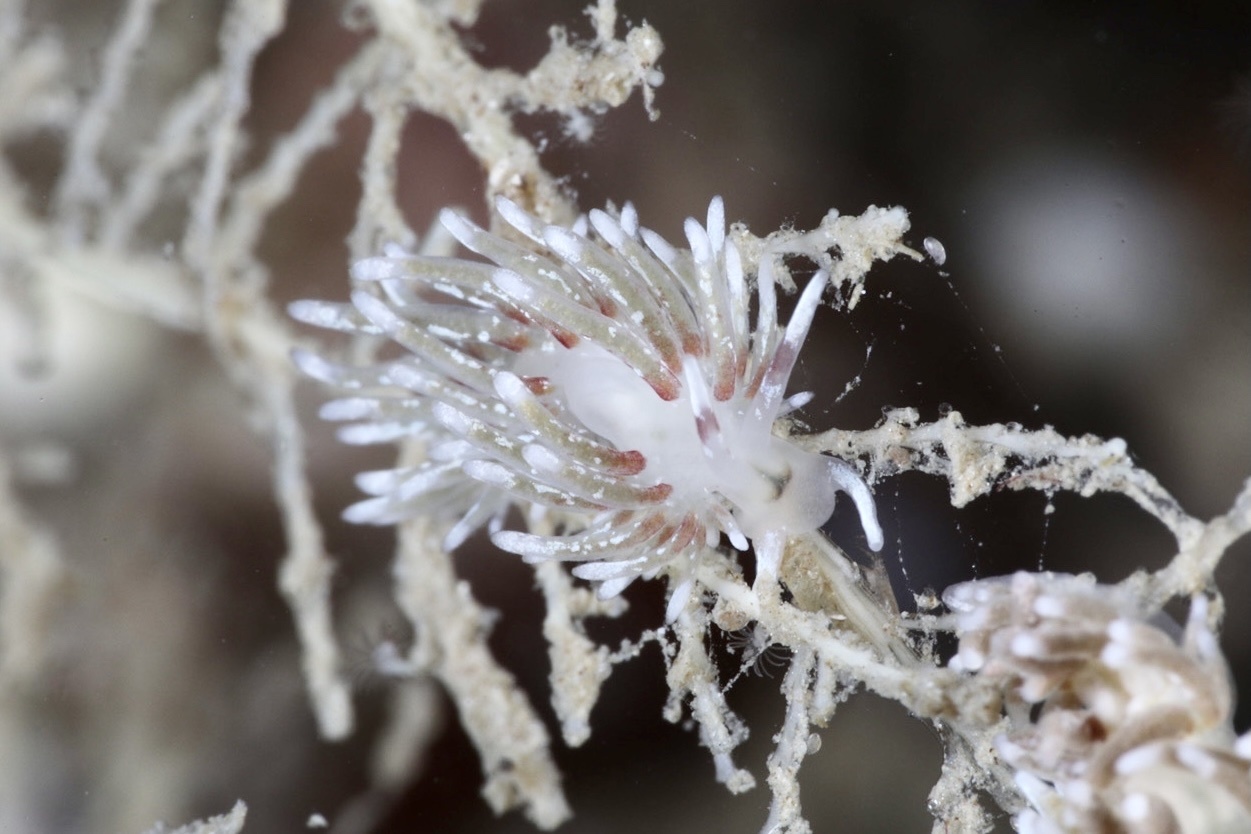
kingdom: Animalia
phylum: Mollusca
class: Gastropoda
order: Nudibranchia
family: Trinchesiidae
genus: Rubramoena
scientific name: Rubramoena rubescens
